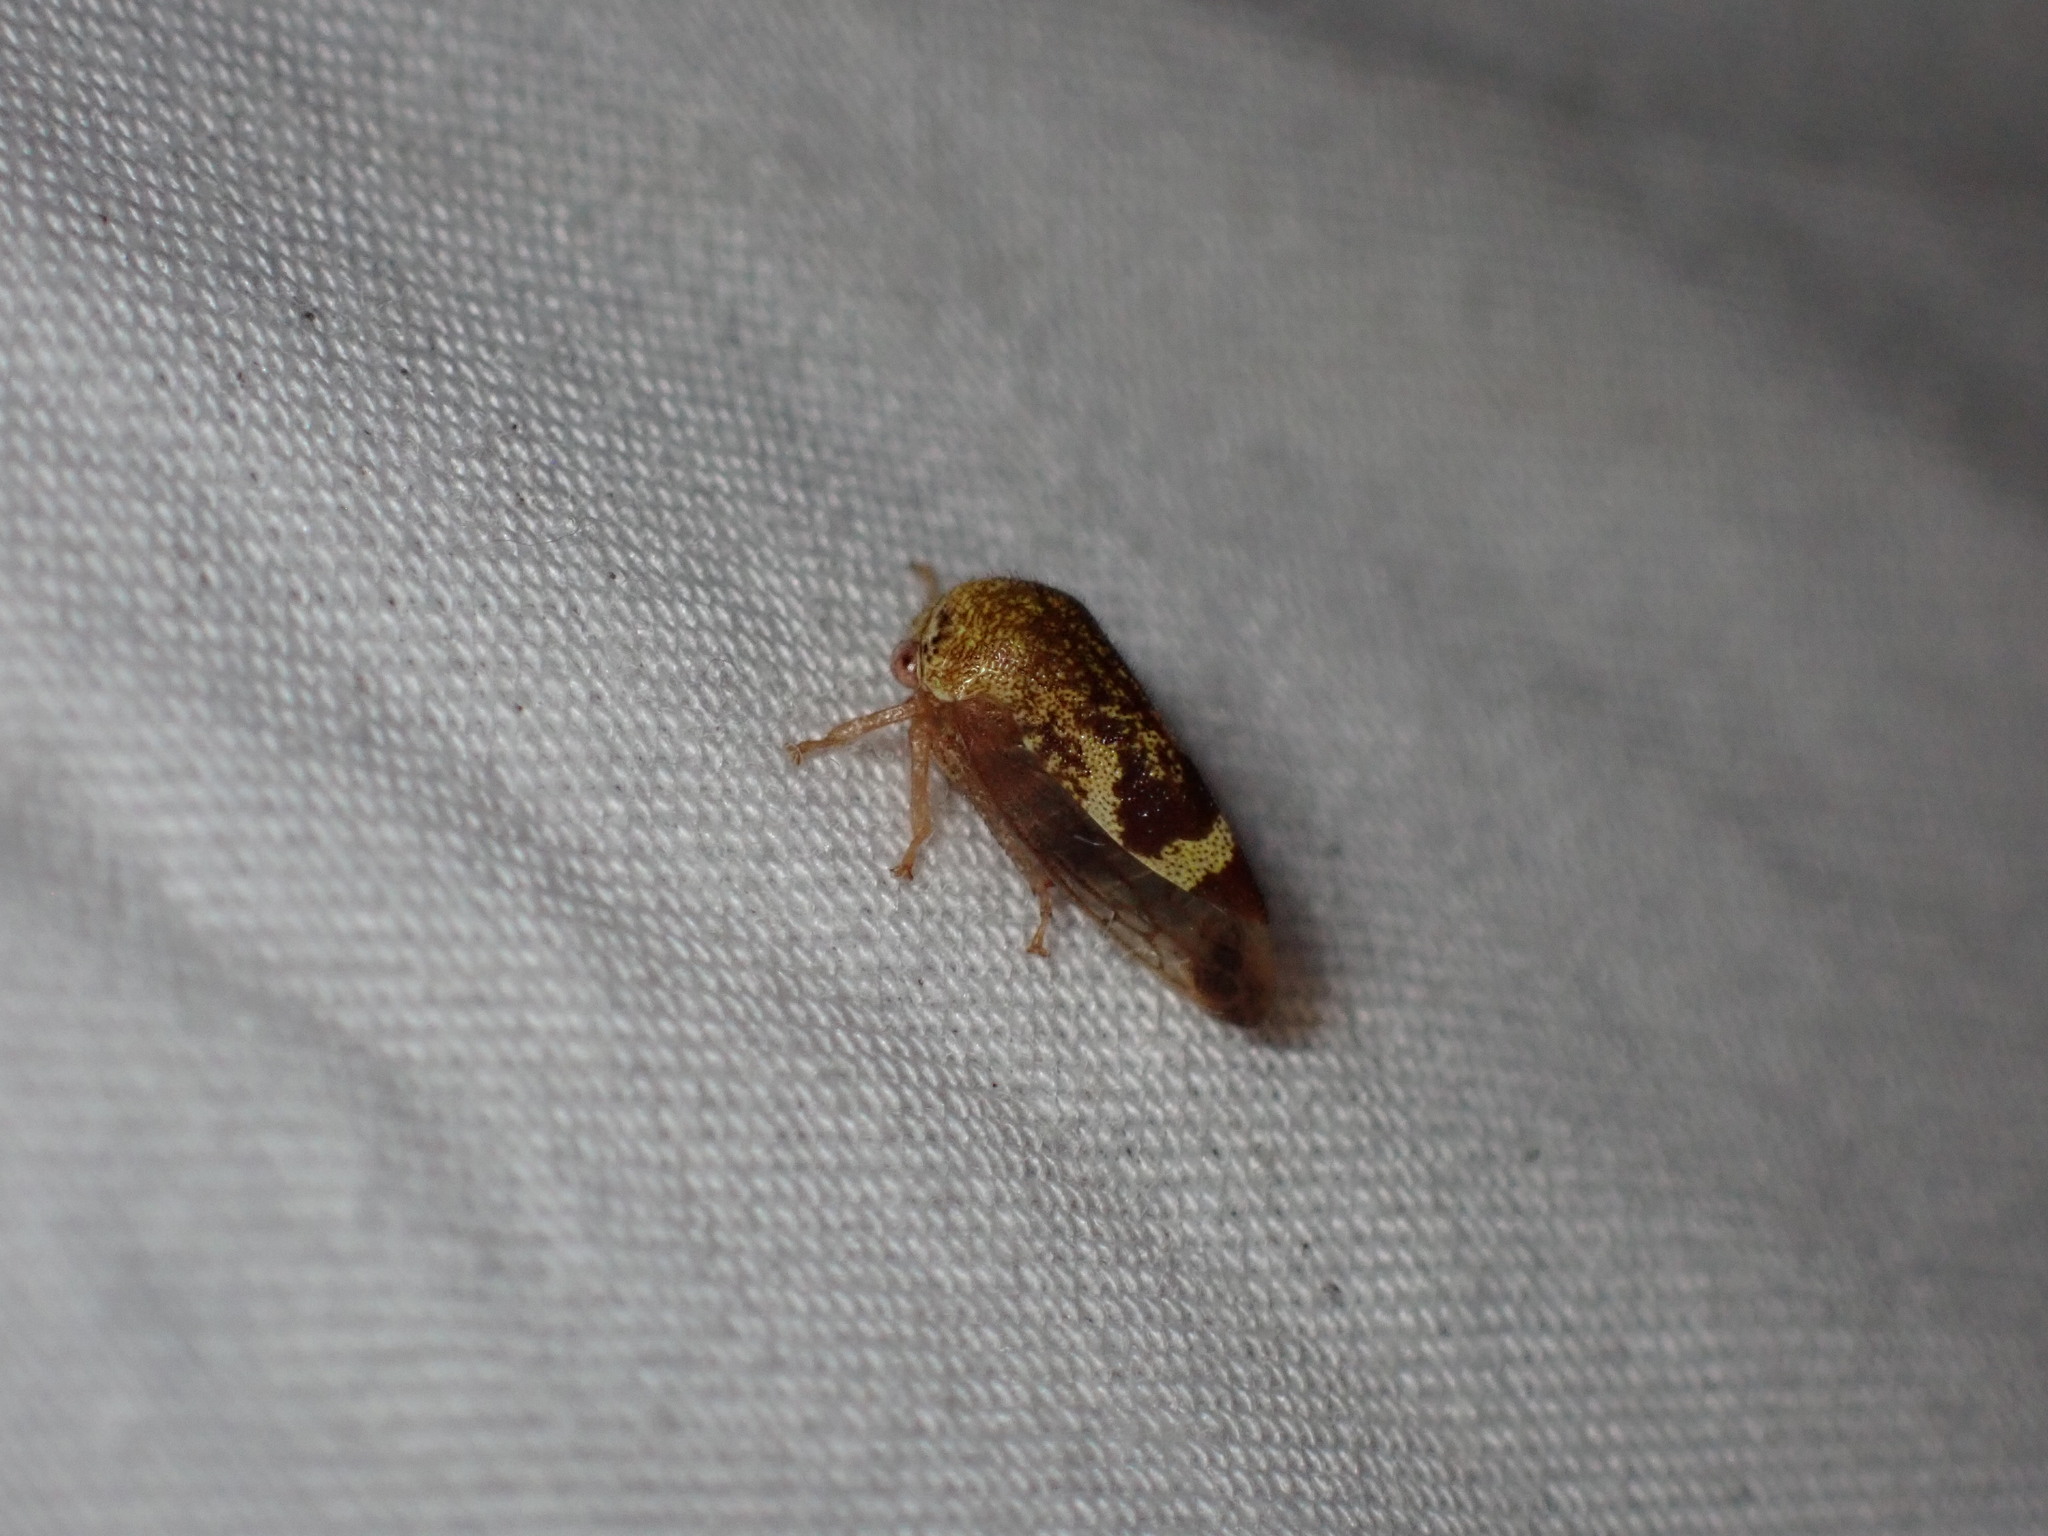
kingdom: Animalia
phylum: Arthropoda
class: Insecta
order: Hemiptera
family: Membracidae
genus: Ophiderma
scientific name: Ophiderma evelyna
